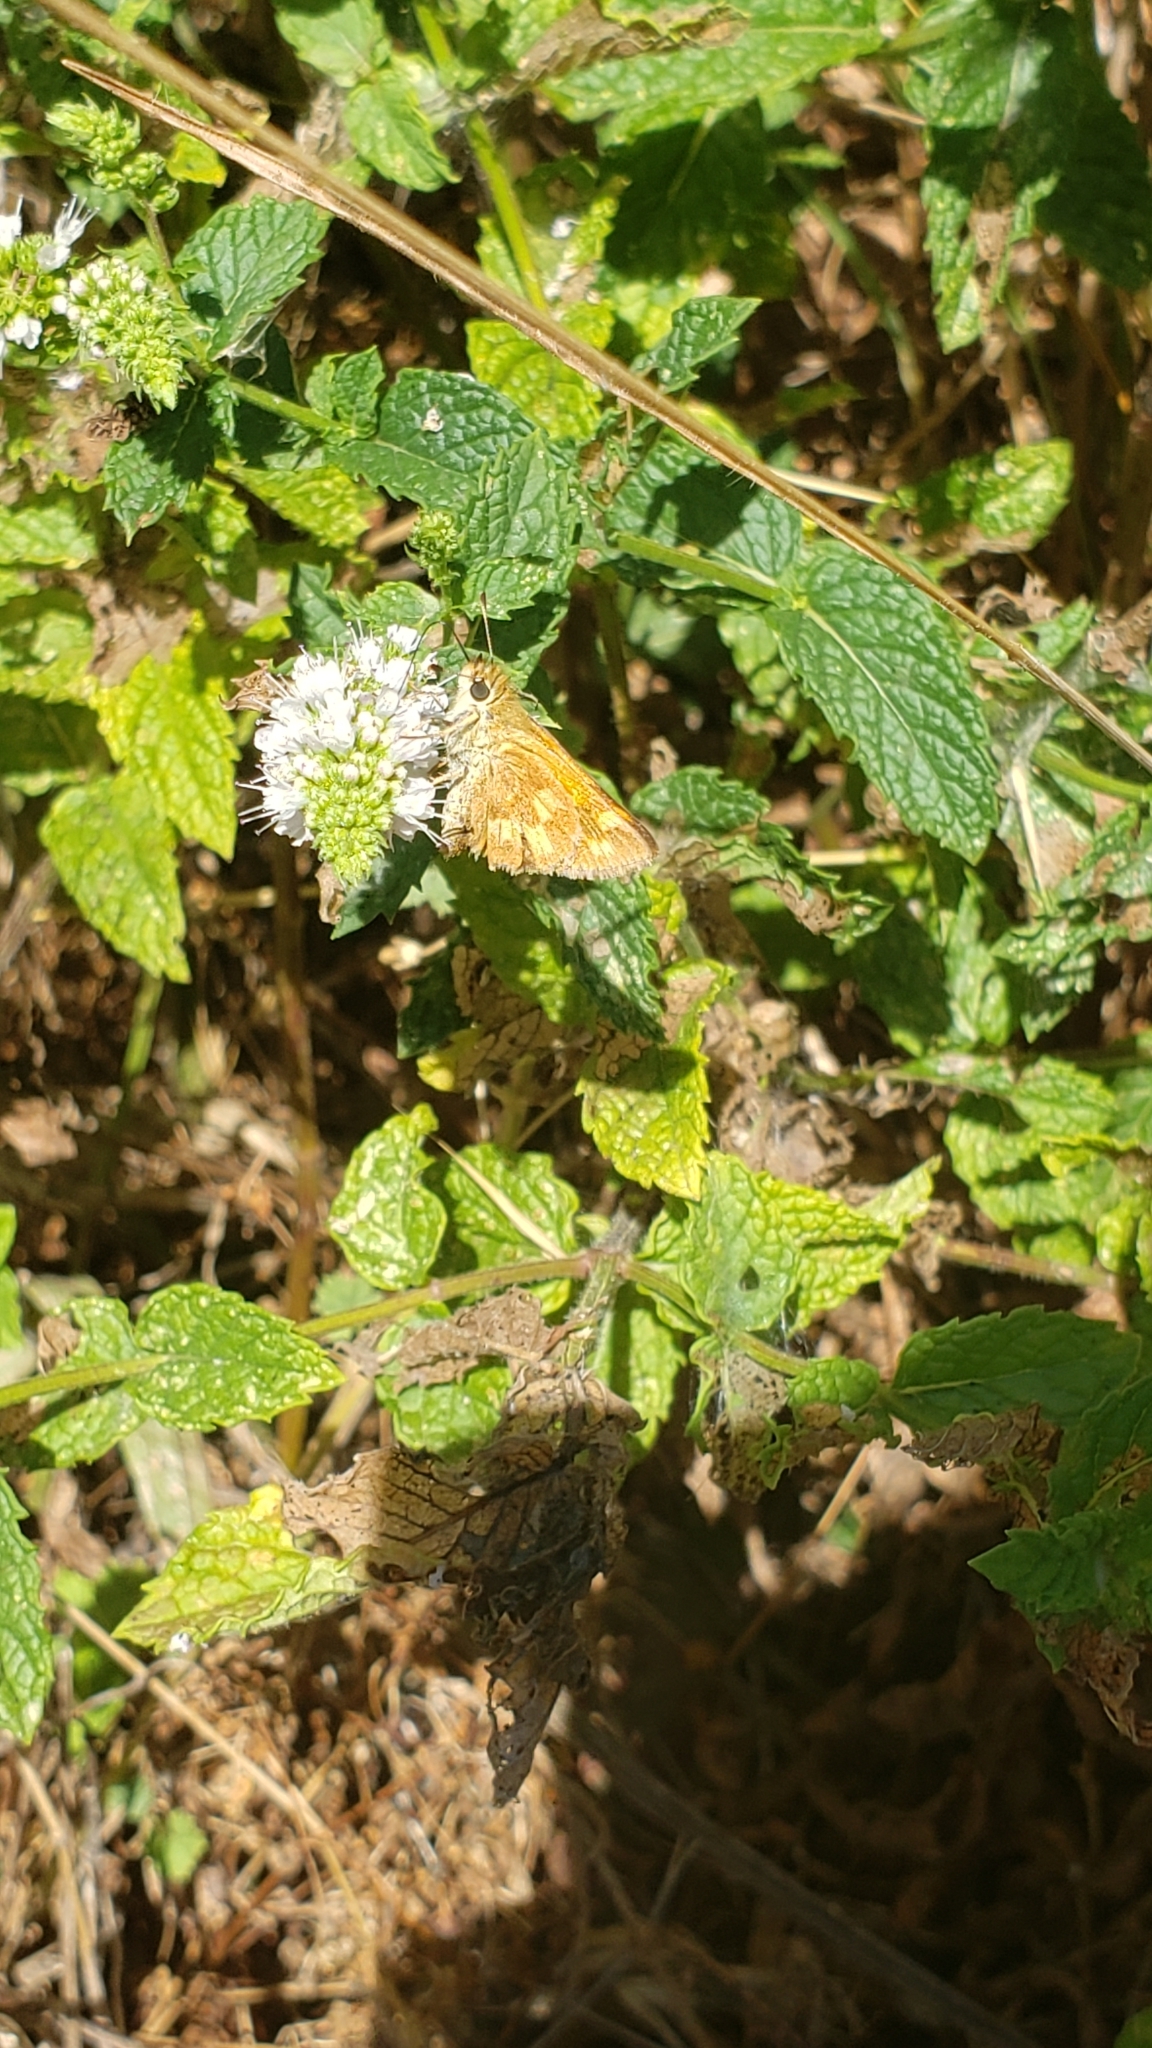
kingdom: Animalia
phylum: Arthropoda
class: Insecta
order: Lepidoptera
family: Hesperiidae
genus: Ochlodes
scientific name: Ochlodes sylvanoides
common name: Woodland skipper
